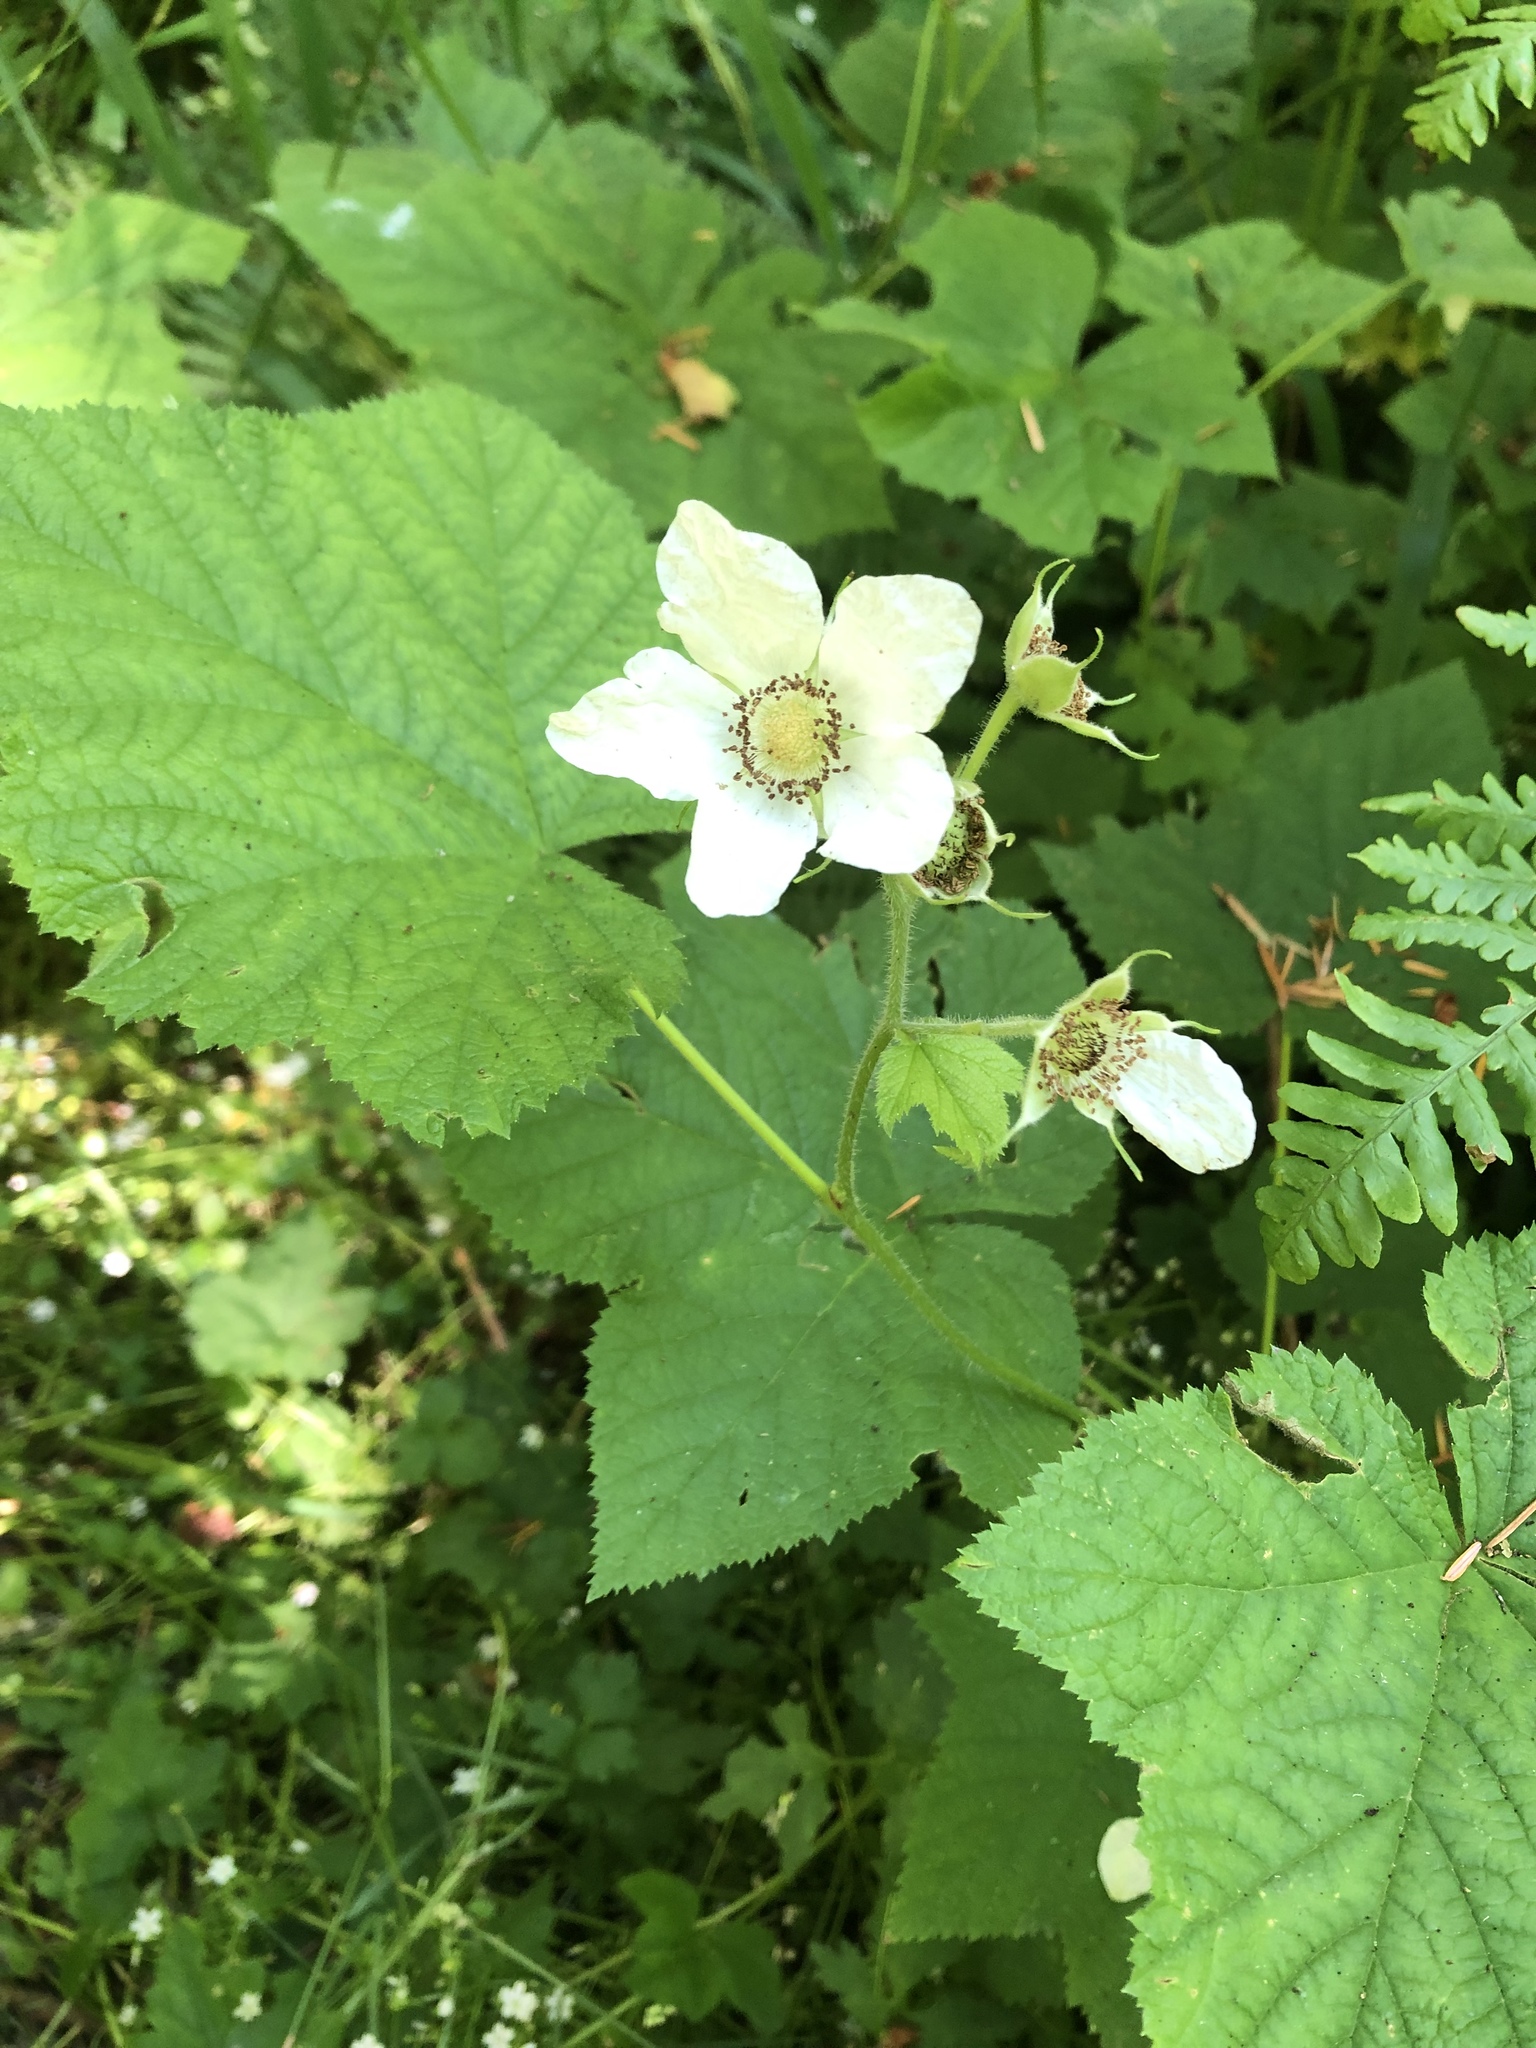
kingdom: Plantae
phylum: Tracheophyta
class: Magnoliopsida
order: Rosales
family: Rosaceae
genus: Rubus
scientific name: Rubus parviflorus
